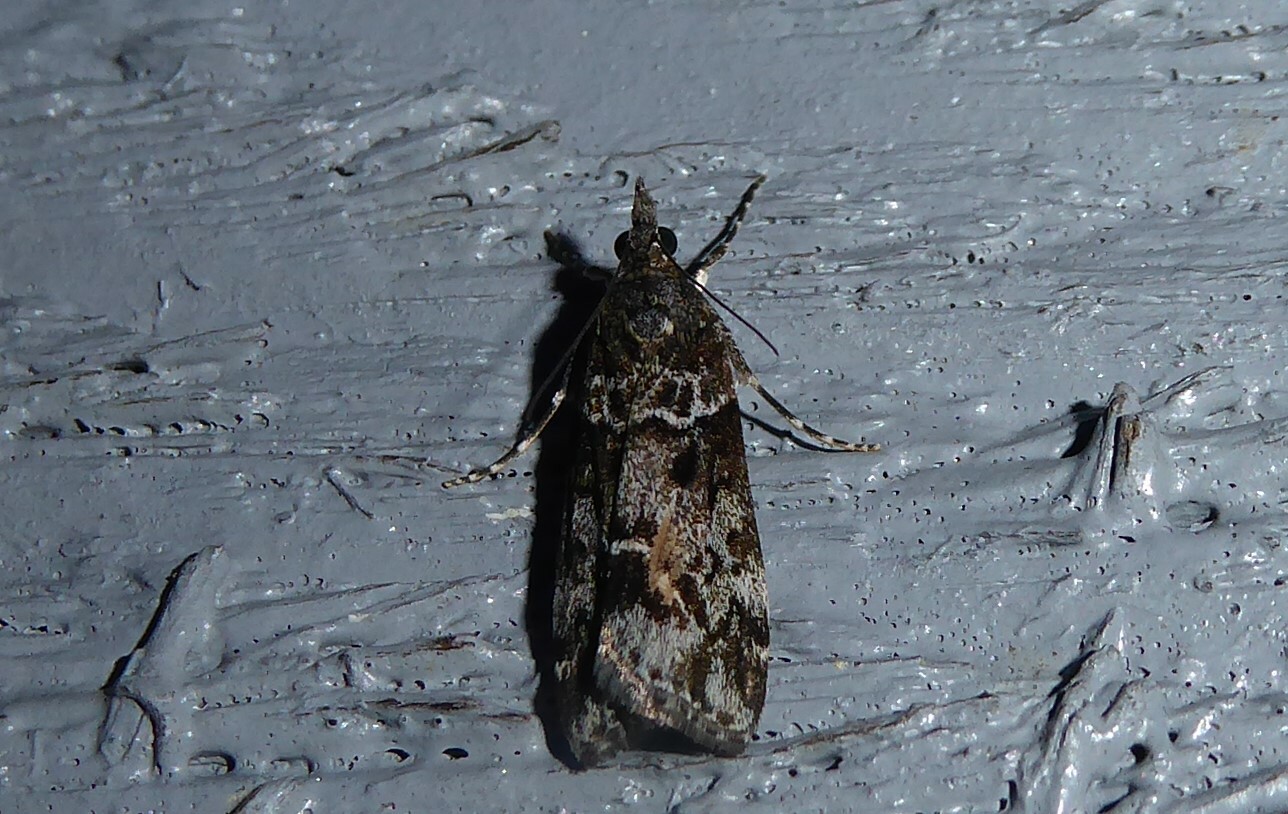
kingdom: Animalia
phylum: Arthropoda
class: Insecta
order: Lepidoptera
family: Crambidae
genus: Eudonia
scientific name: Eudonia submarginalis
